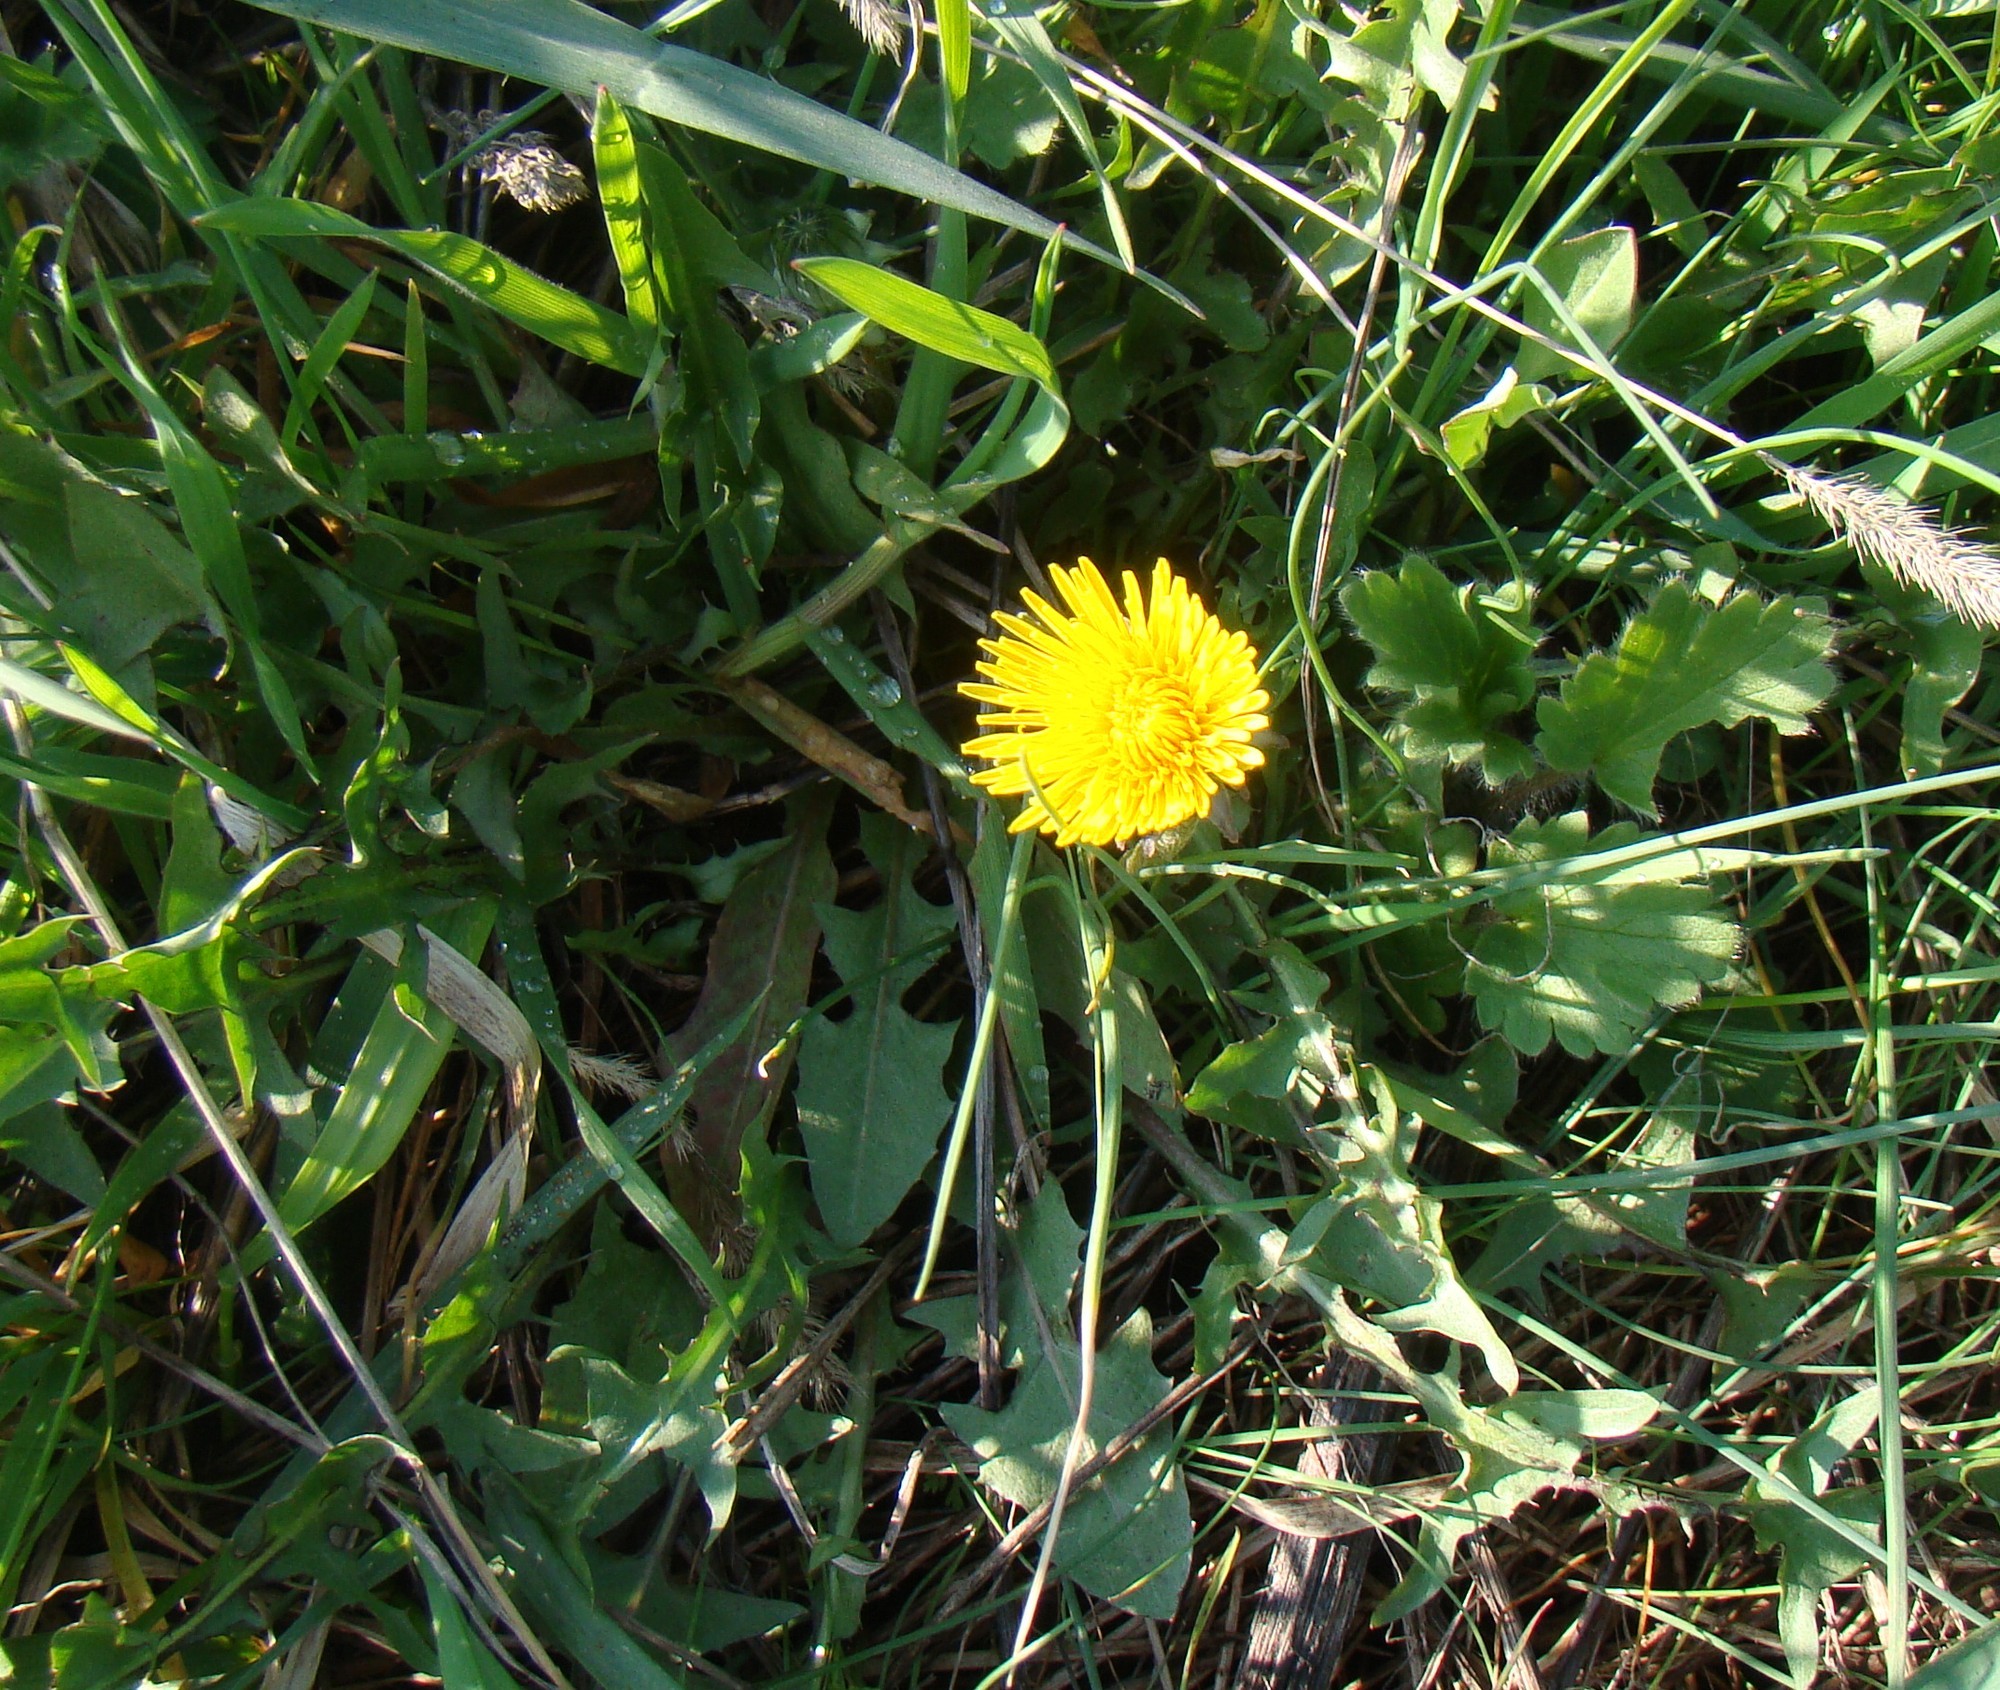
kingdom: Plantae
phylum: Tracheophyta
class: Magnoliopsida
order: Asterales
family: Asteraceae
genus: Taraxacum
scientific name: Taraxacum officinale
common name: Common dandelion
